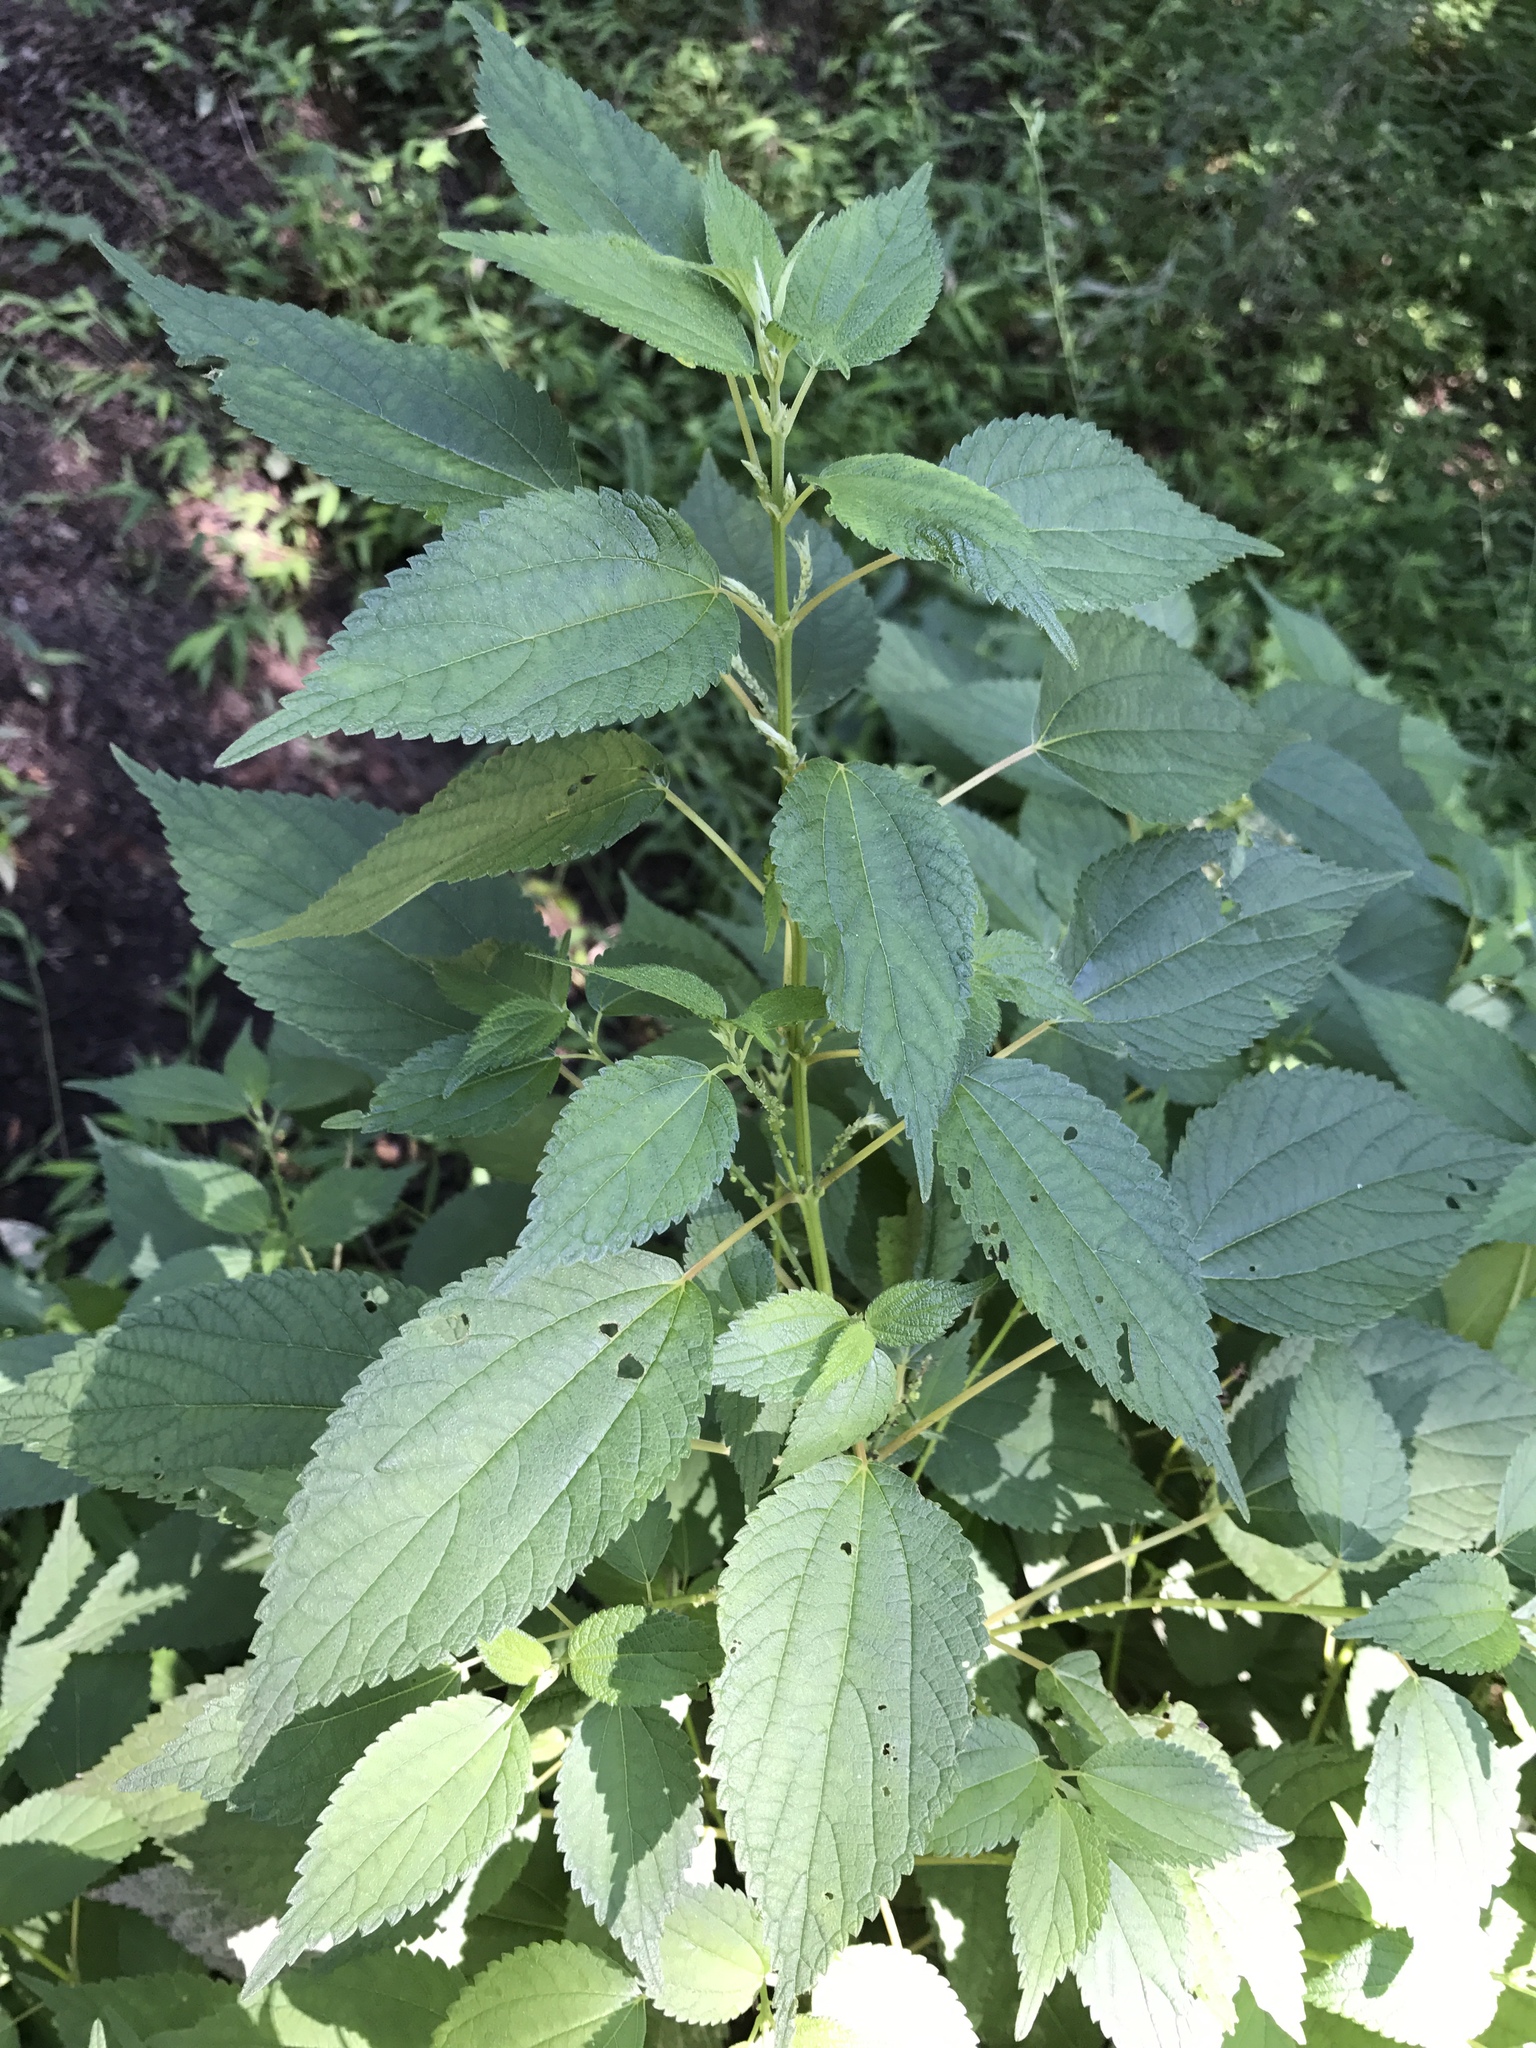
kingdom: Plantae
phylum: Tracheophyta
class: Magnoliopsida
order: Rosales
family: Urticaceae
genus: Boehmeria
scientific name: Boehmeria cylindrica
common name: Bog-hemp
